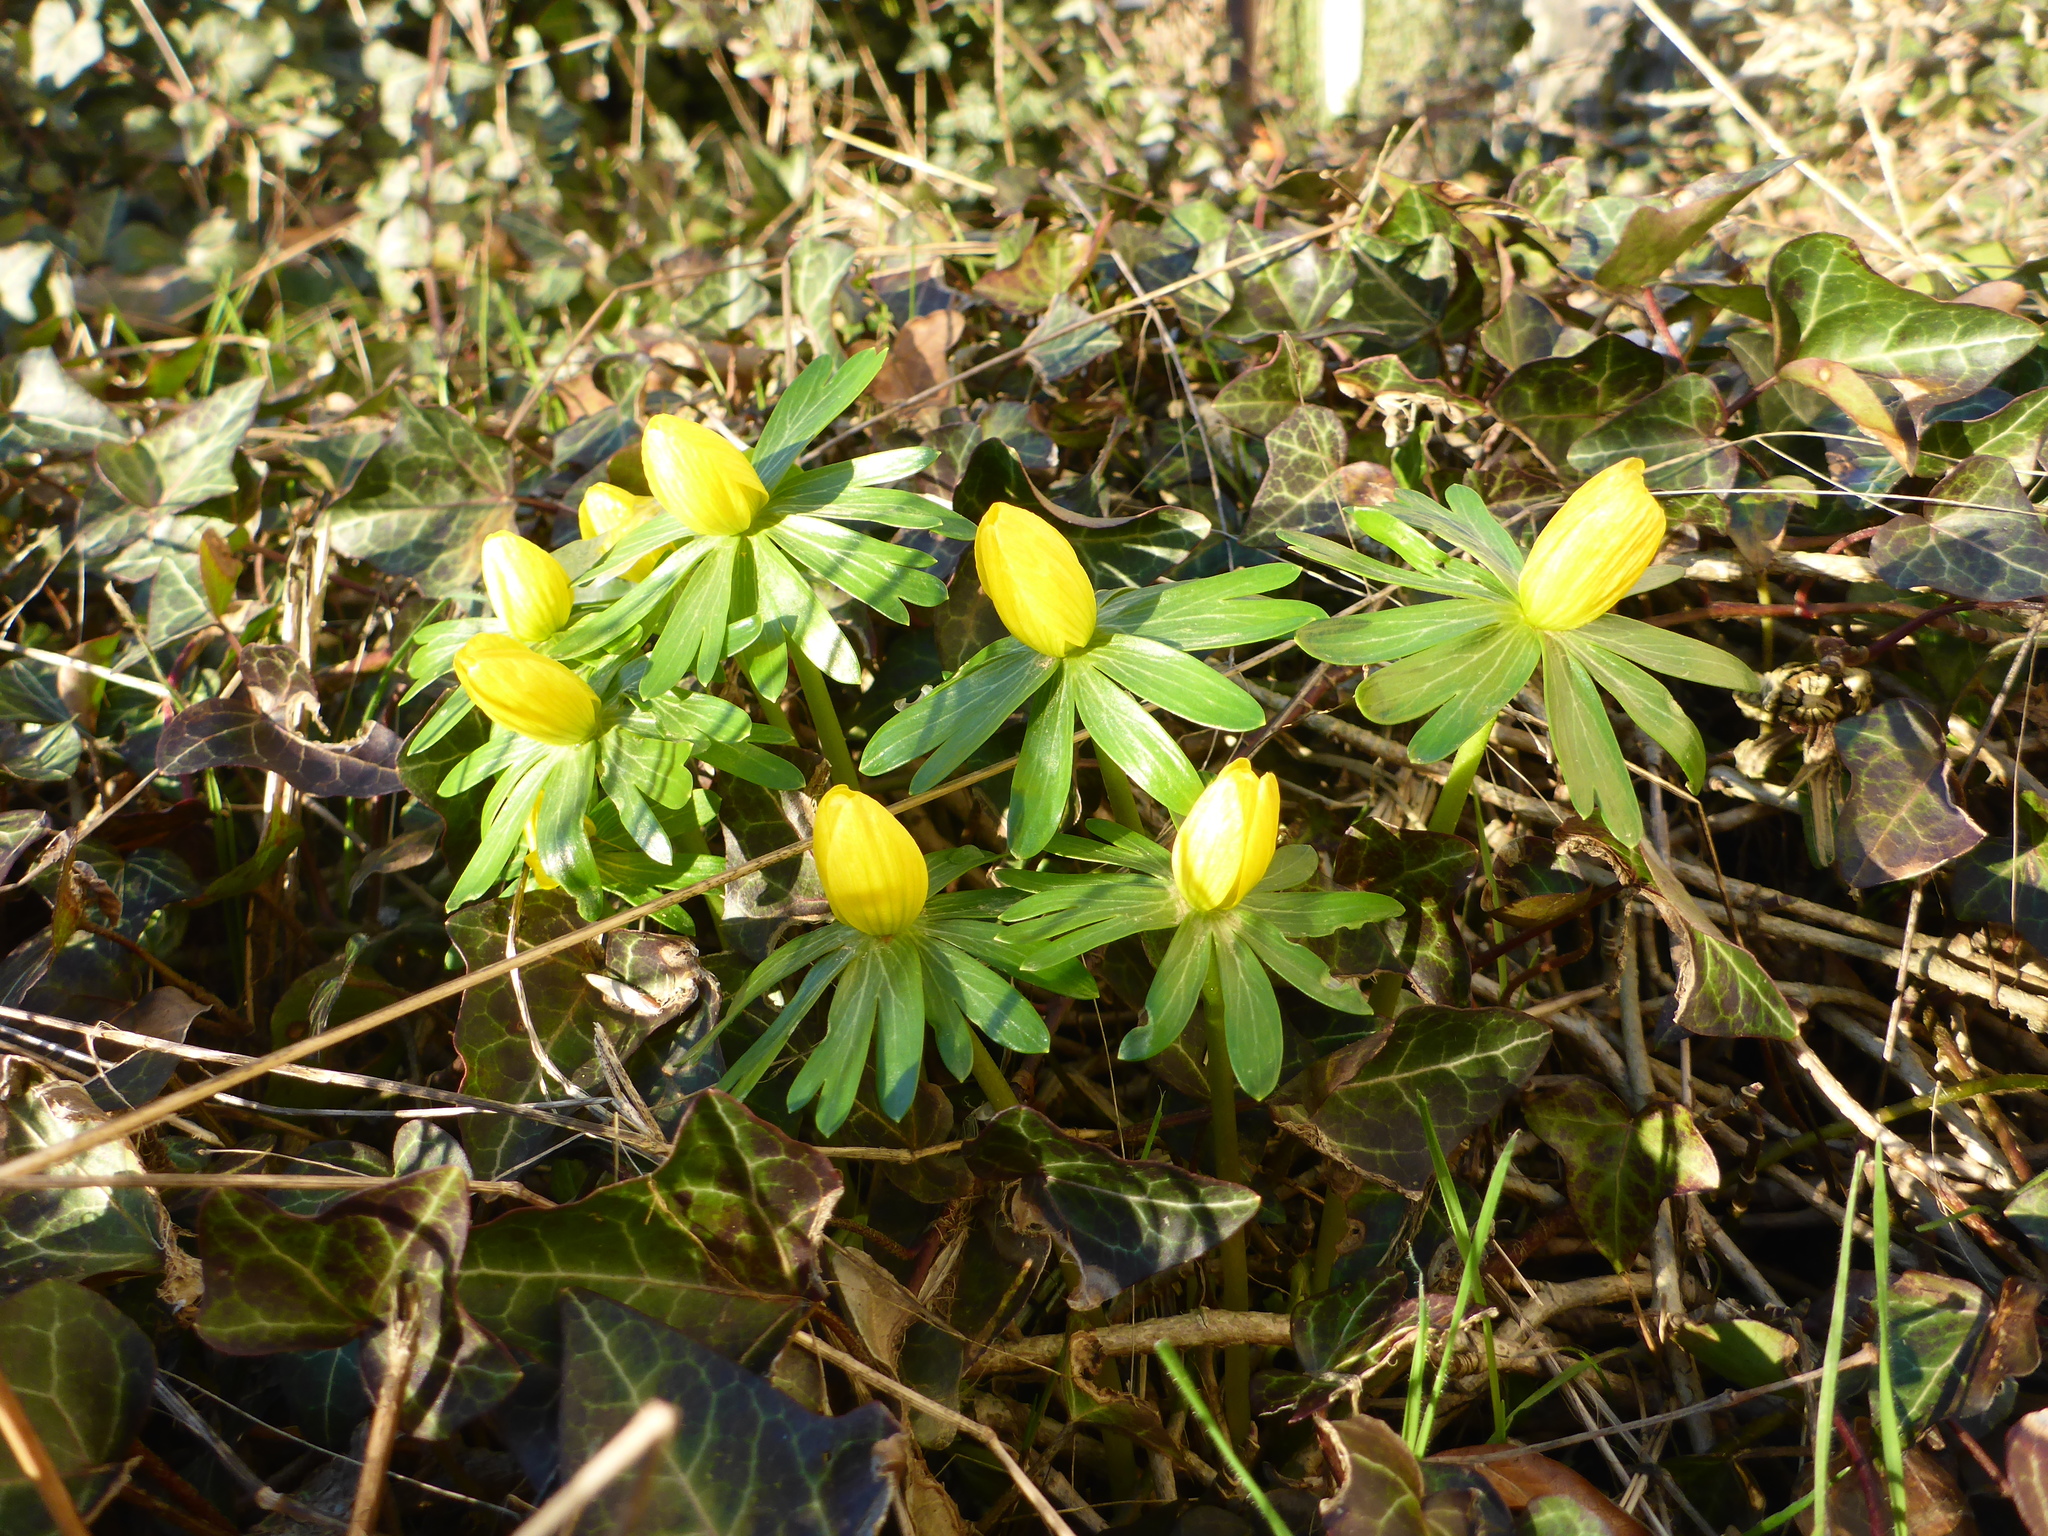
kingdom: Plantae
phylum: Tracheophyta
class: Magnoliopsida
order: Ranunculales
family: Ranunculaceae
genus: Eranthis
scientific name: Eranthis hyemalis
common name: Winter aconite
